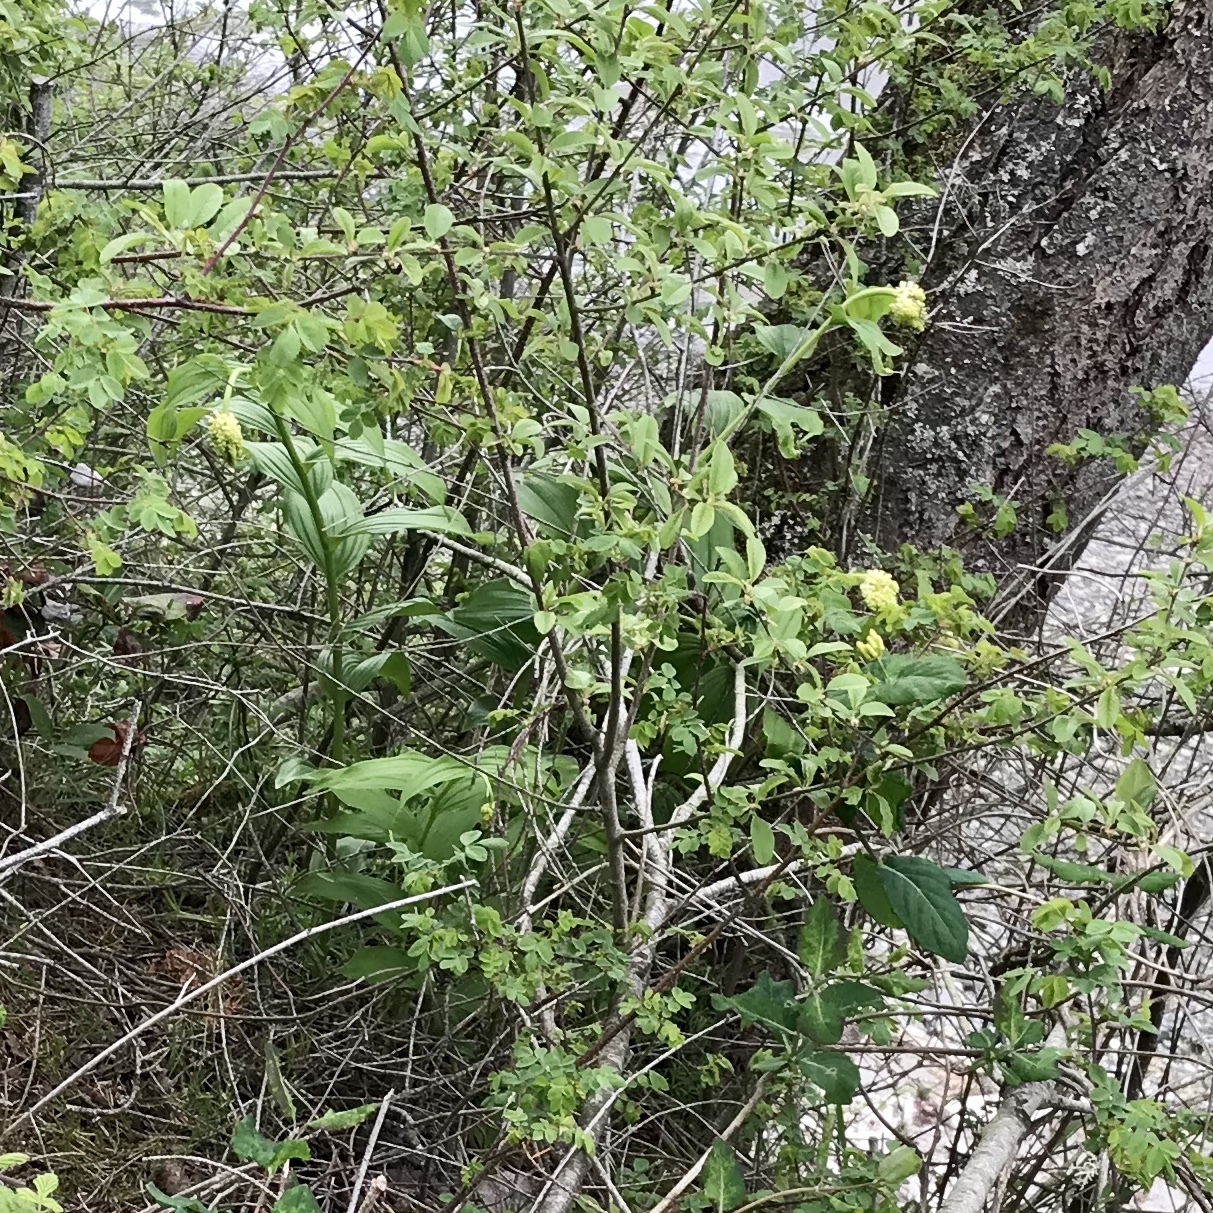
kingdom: Plantae
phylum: Tracheophyta
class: Liliopsida
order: Asparagales
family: Asparagaceae
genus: Maianthemum
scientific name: Maianthemum racemosum
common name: False spikenard
